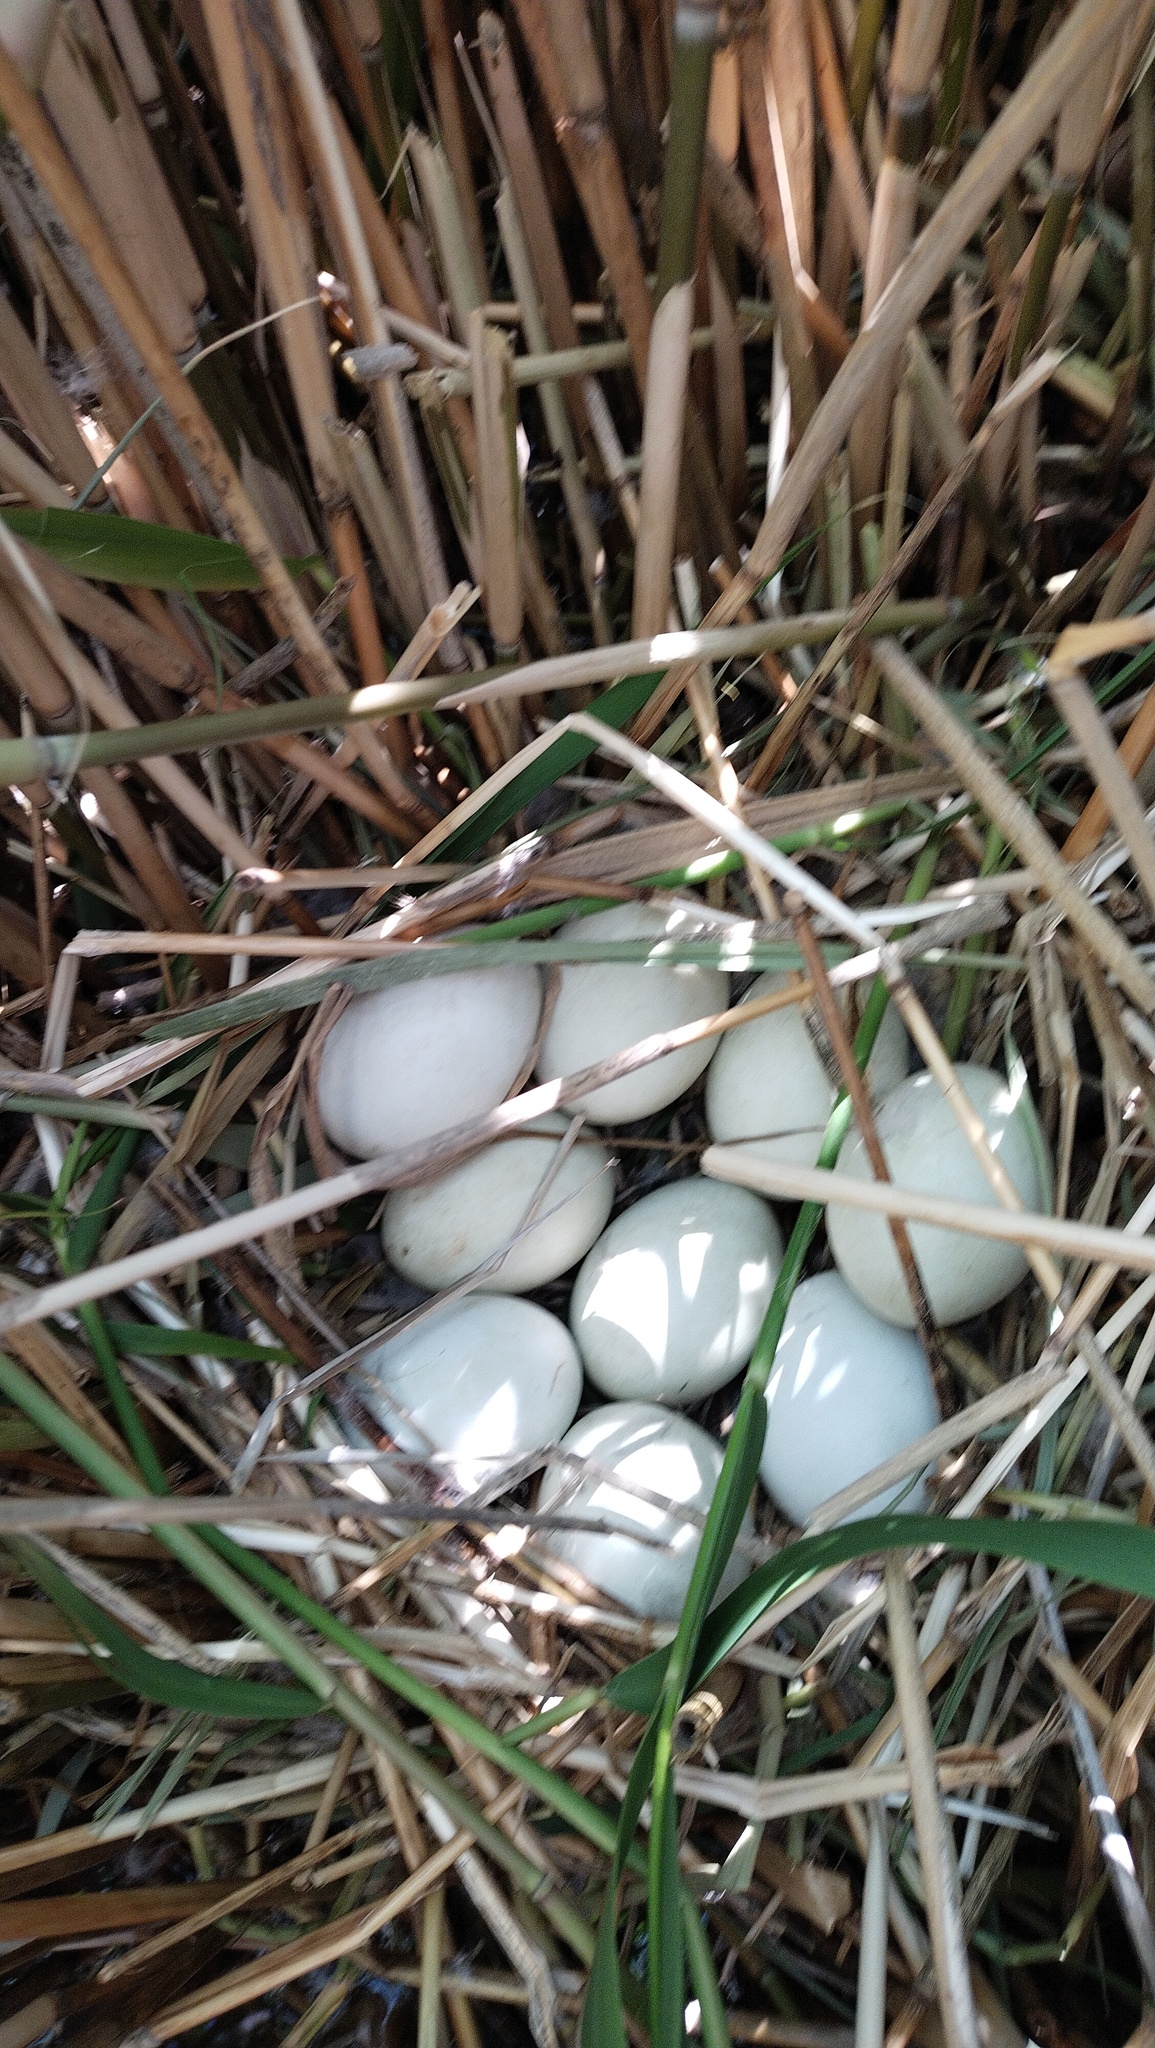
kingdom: Animalia
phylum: Chordata
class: Aves
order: Anseriformes
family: Anatidae
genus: Oxyura
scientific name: Oxyura leucocephala
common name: White-headed duck
